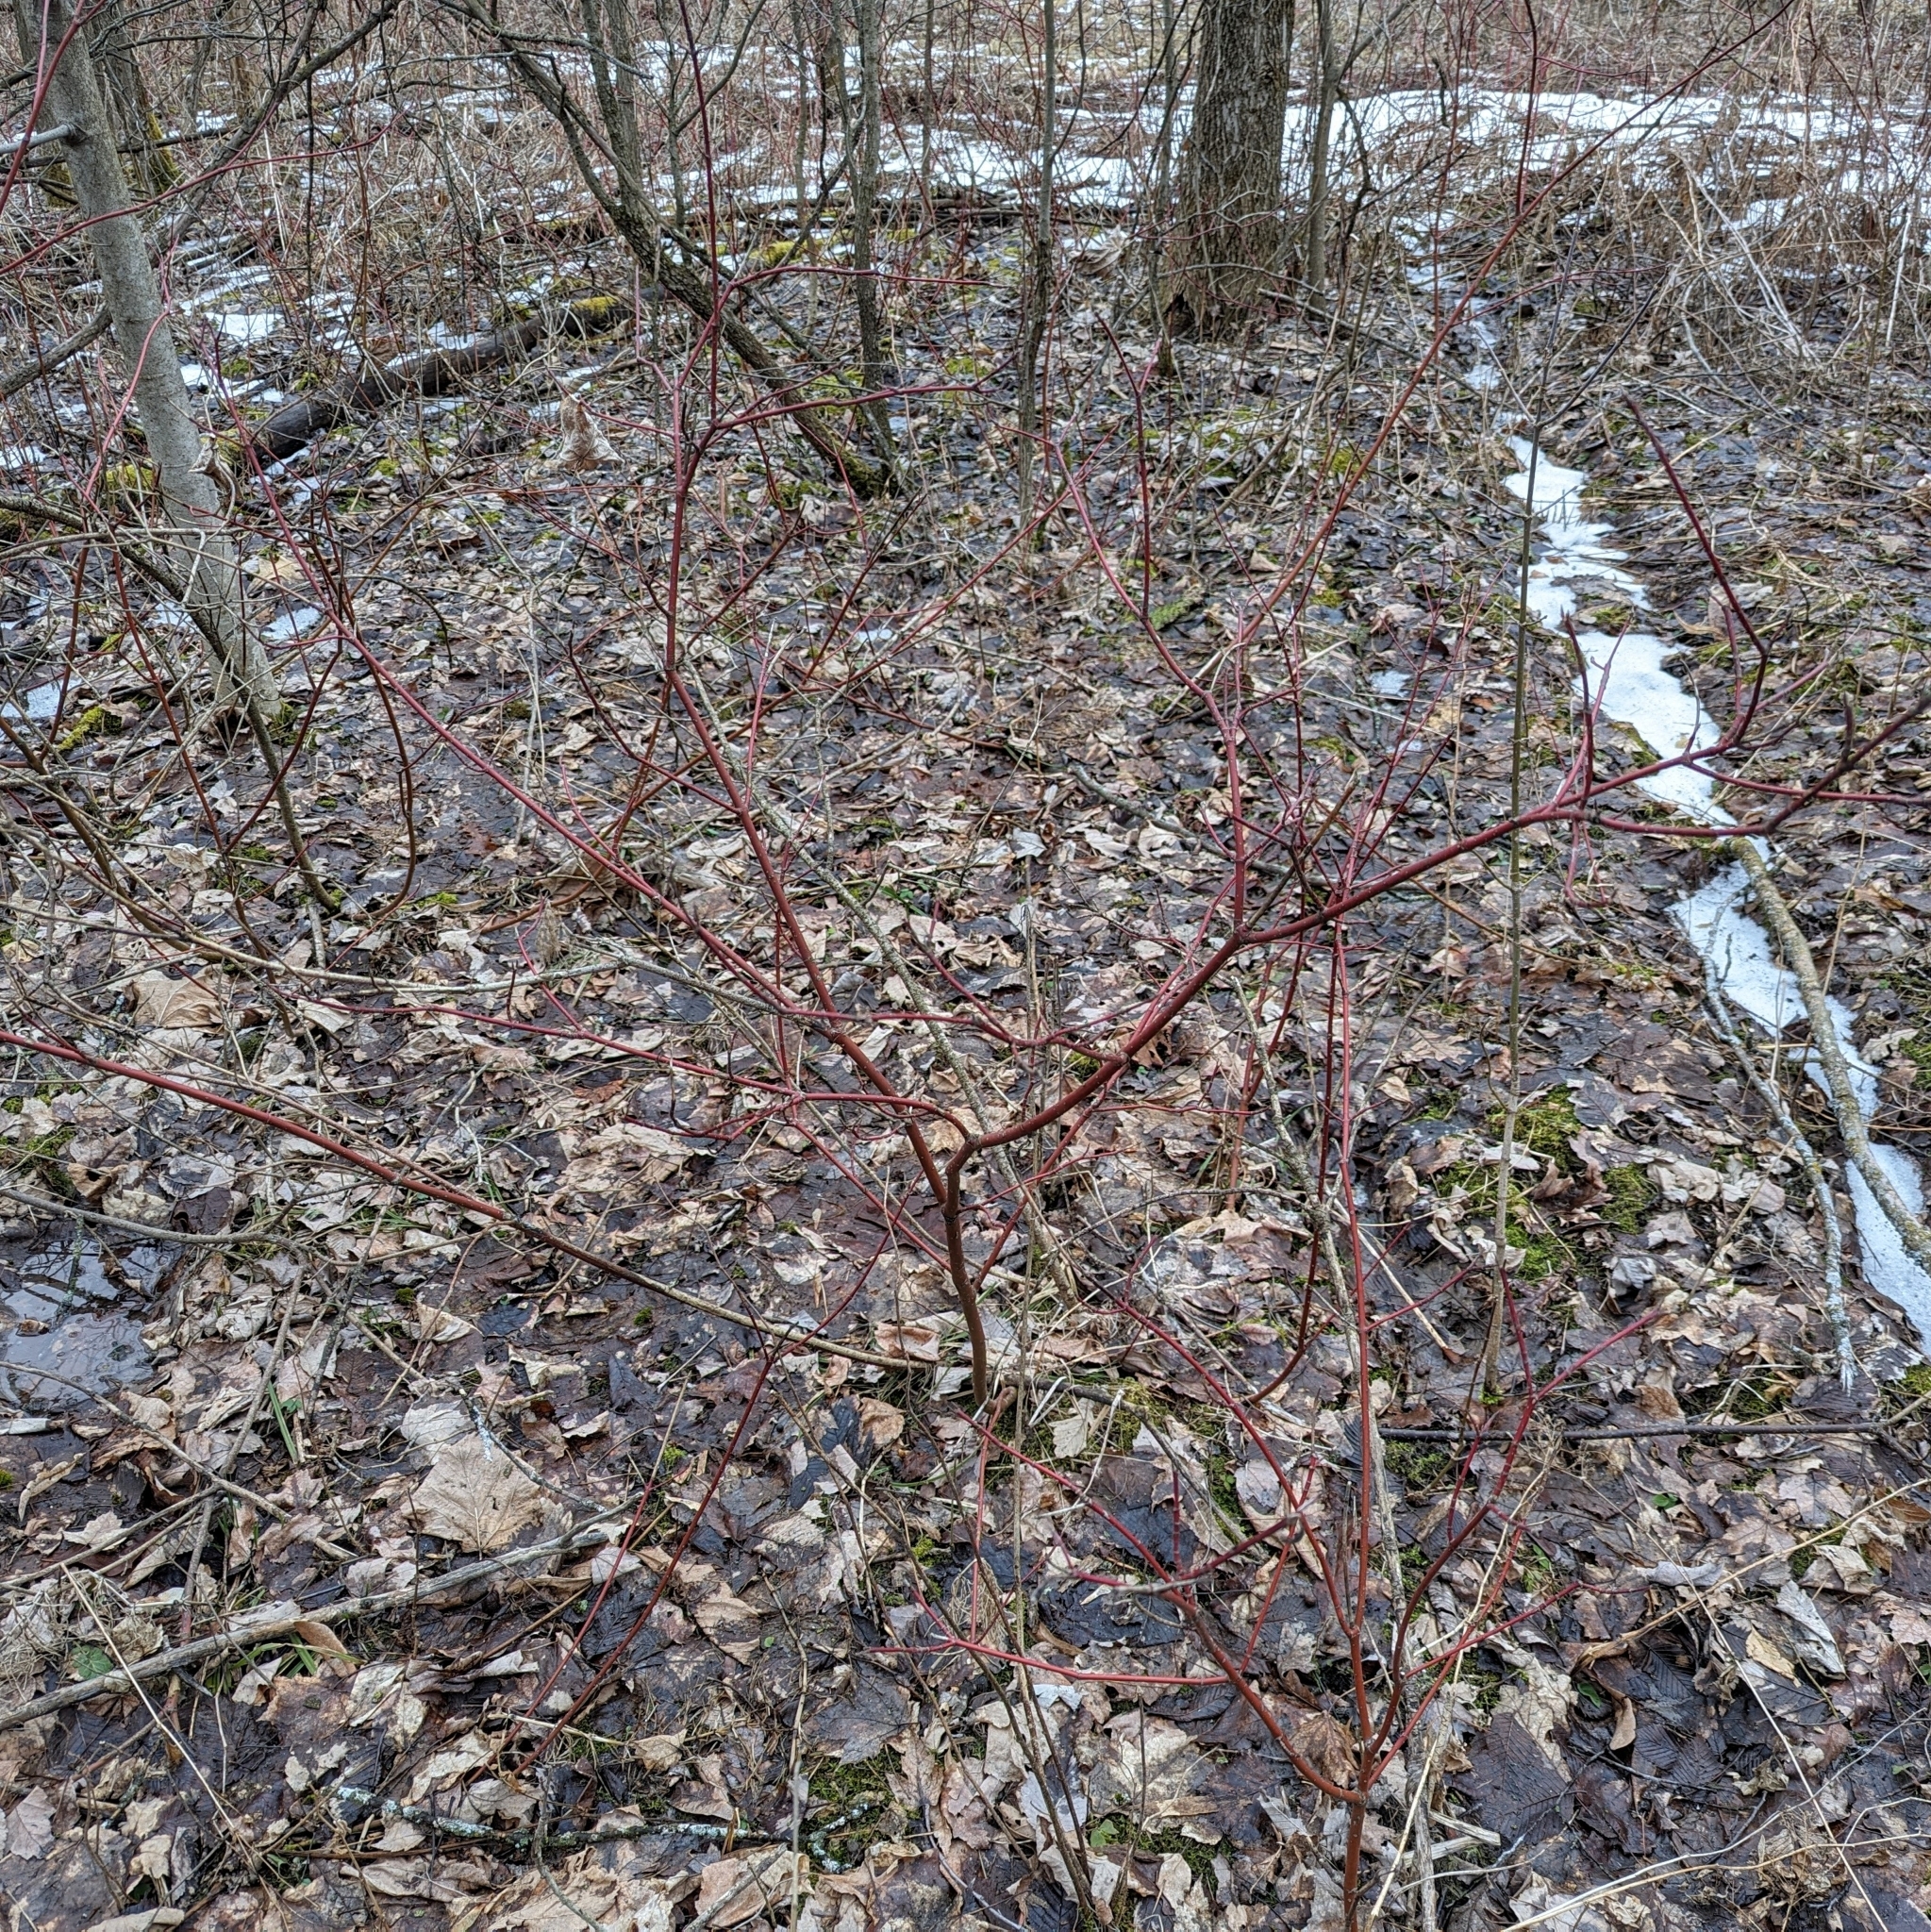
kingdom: Plantae
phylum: Tracheophyta
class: Magnoliopsida
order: Cornales
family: Cornaceae
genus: Cornus
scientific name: Cornus sericea
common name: Red-osier dogwood
